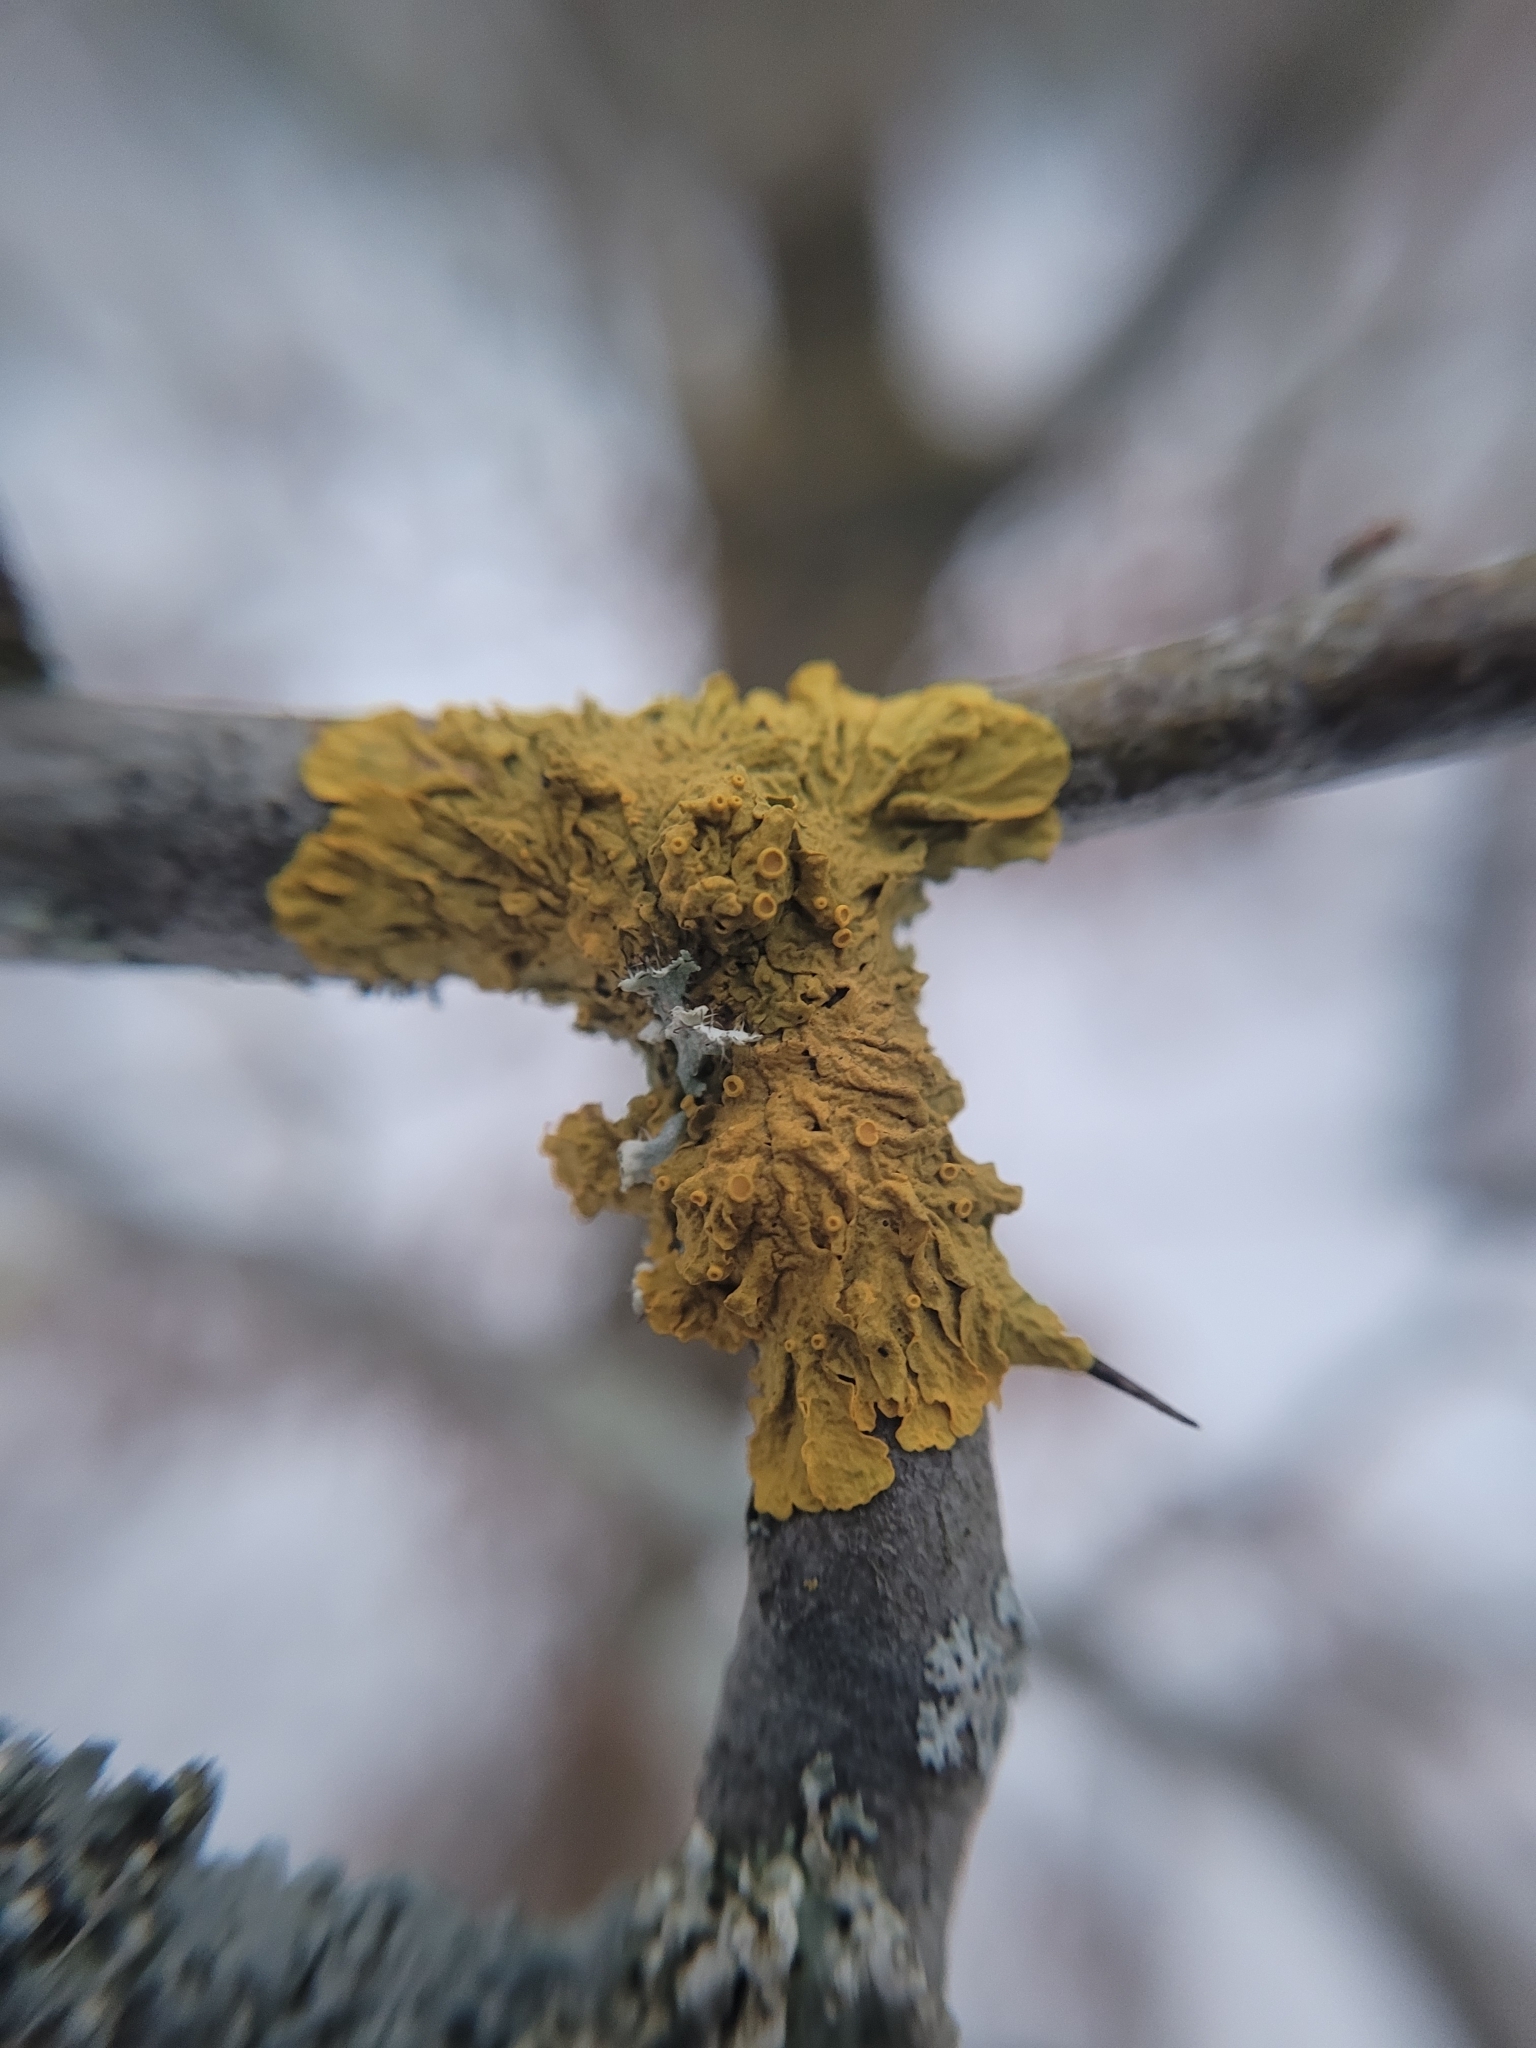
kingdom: Fungi
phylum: Ascomycota
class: Lecanoromycetes
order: Teloschistales
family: Teloschistaceae
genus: Xanthoria
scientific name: Xanthoria parietina
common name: Common orange lichen
